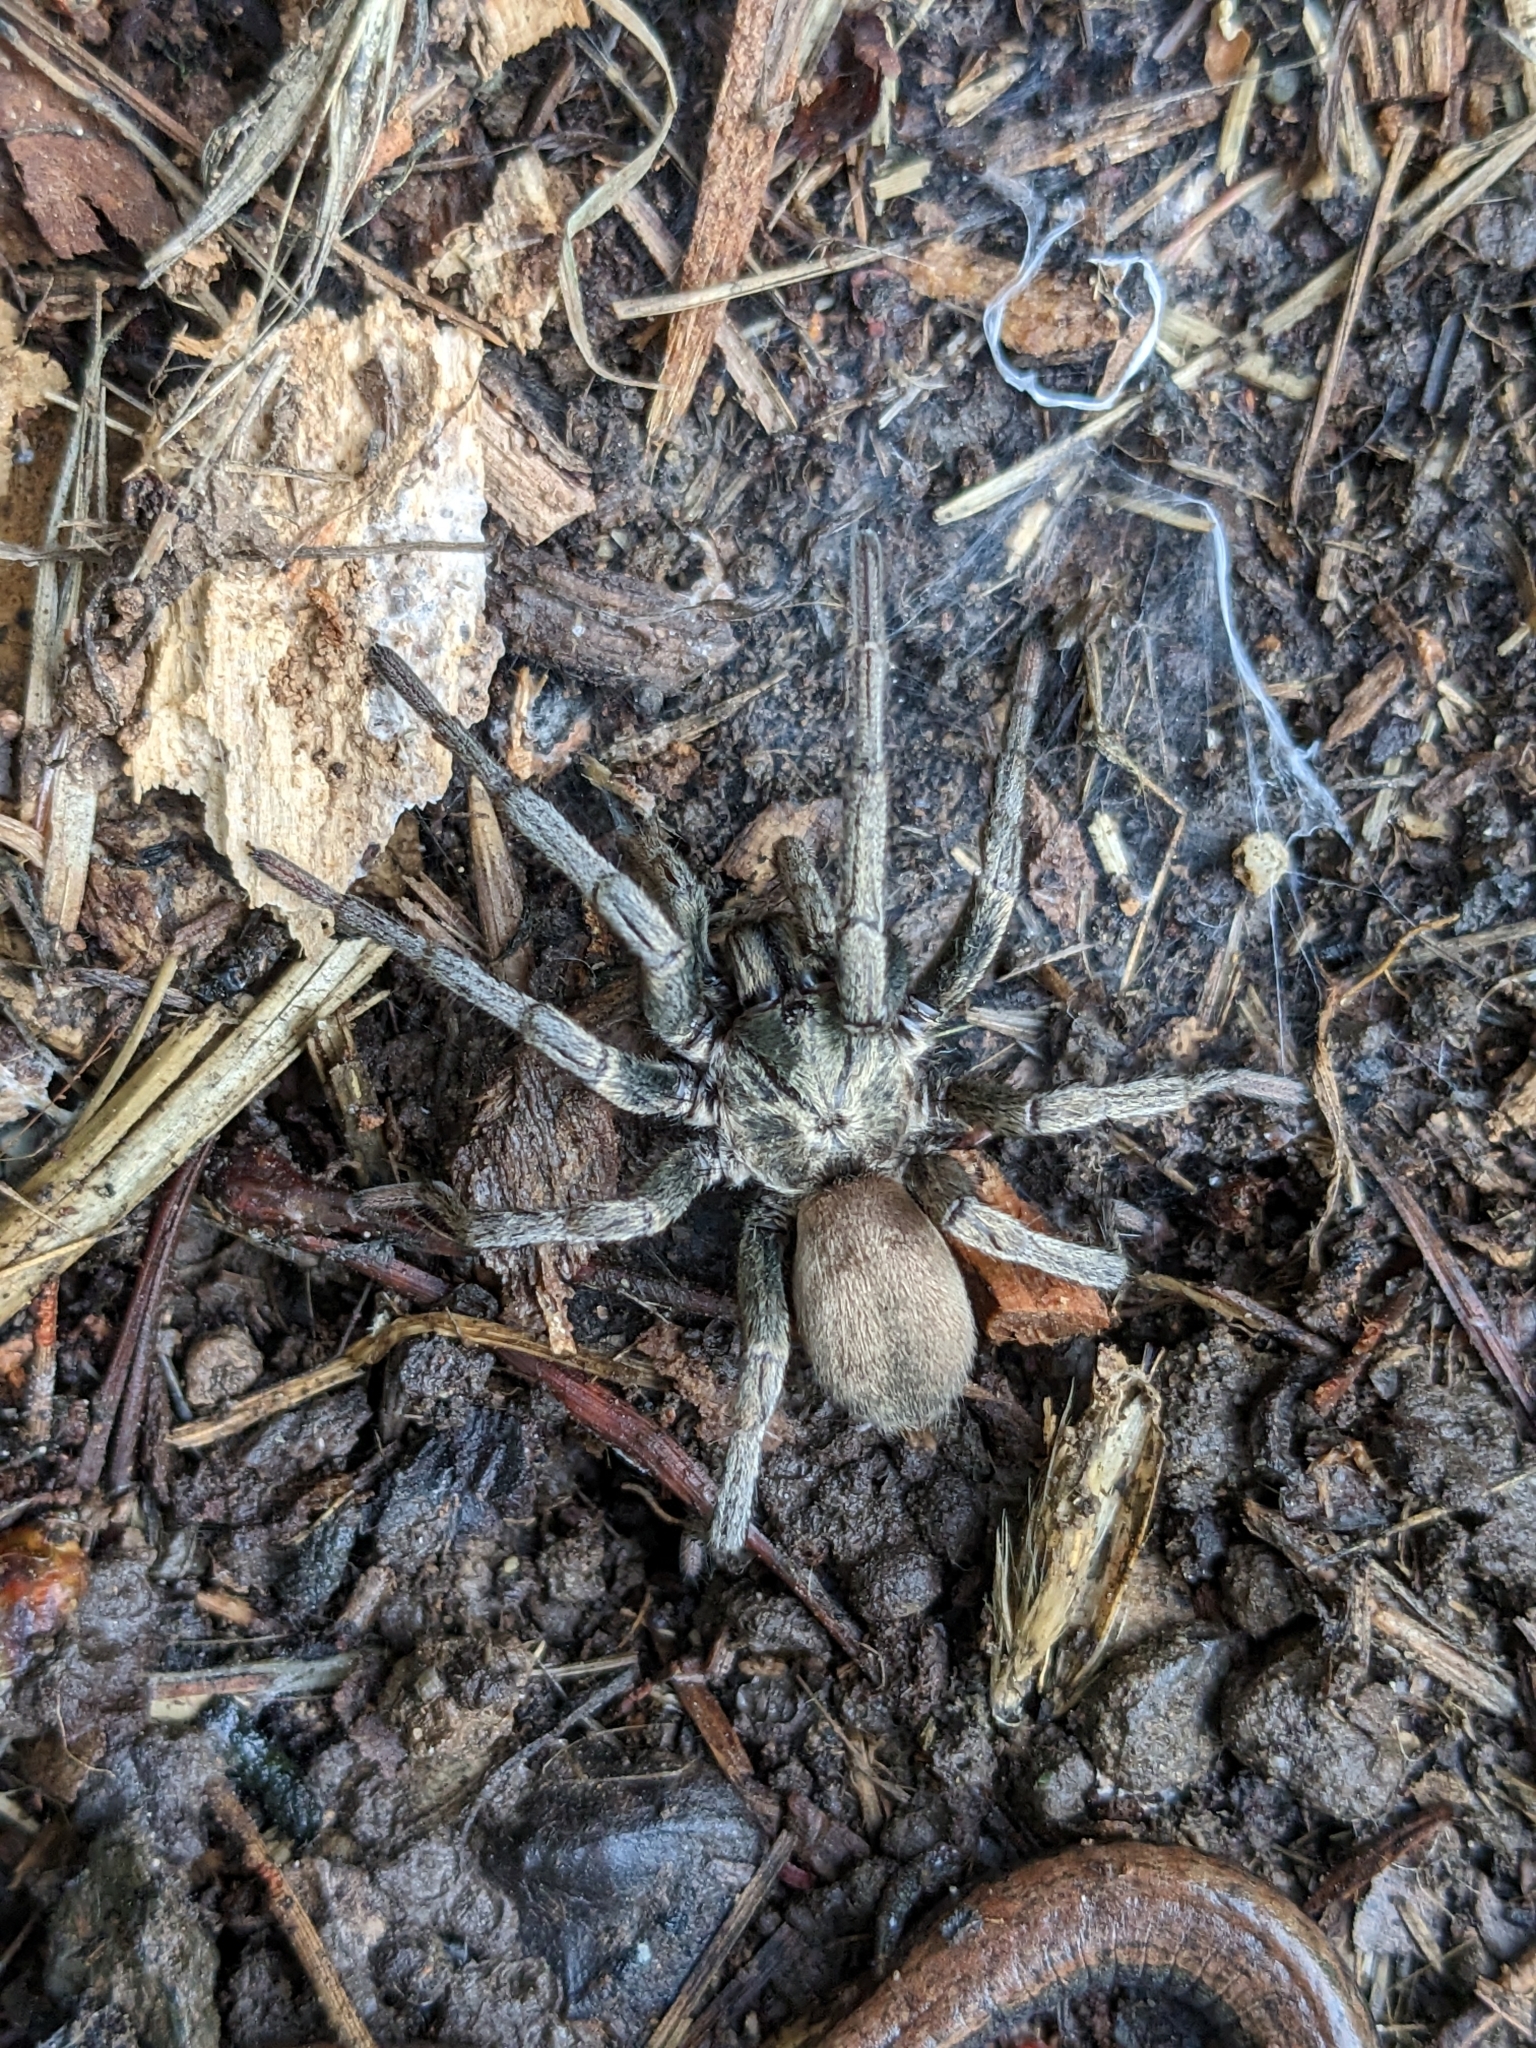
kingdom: Animalia
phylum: Arthropoda
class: Arachnida
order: Araneae
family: Nemesiidae
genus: Calisoga
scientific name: Calisoga longitarsis
